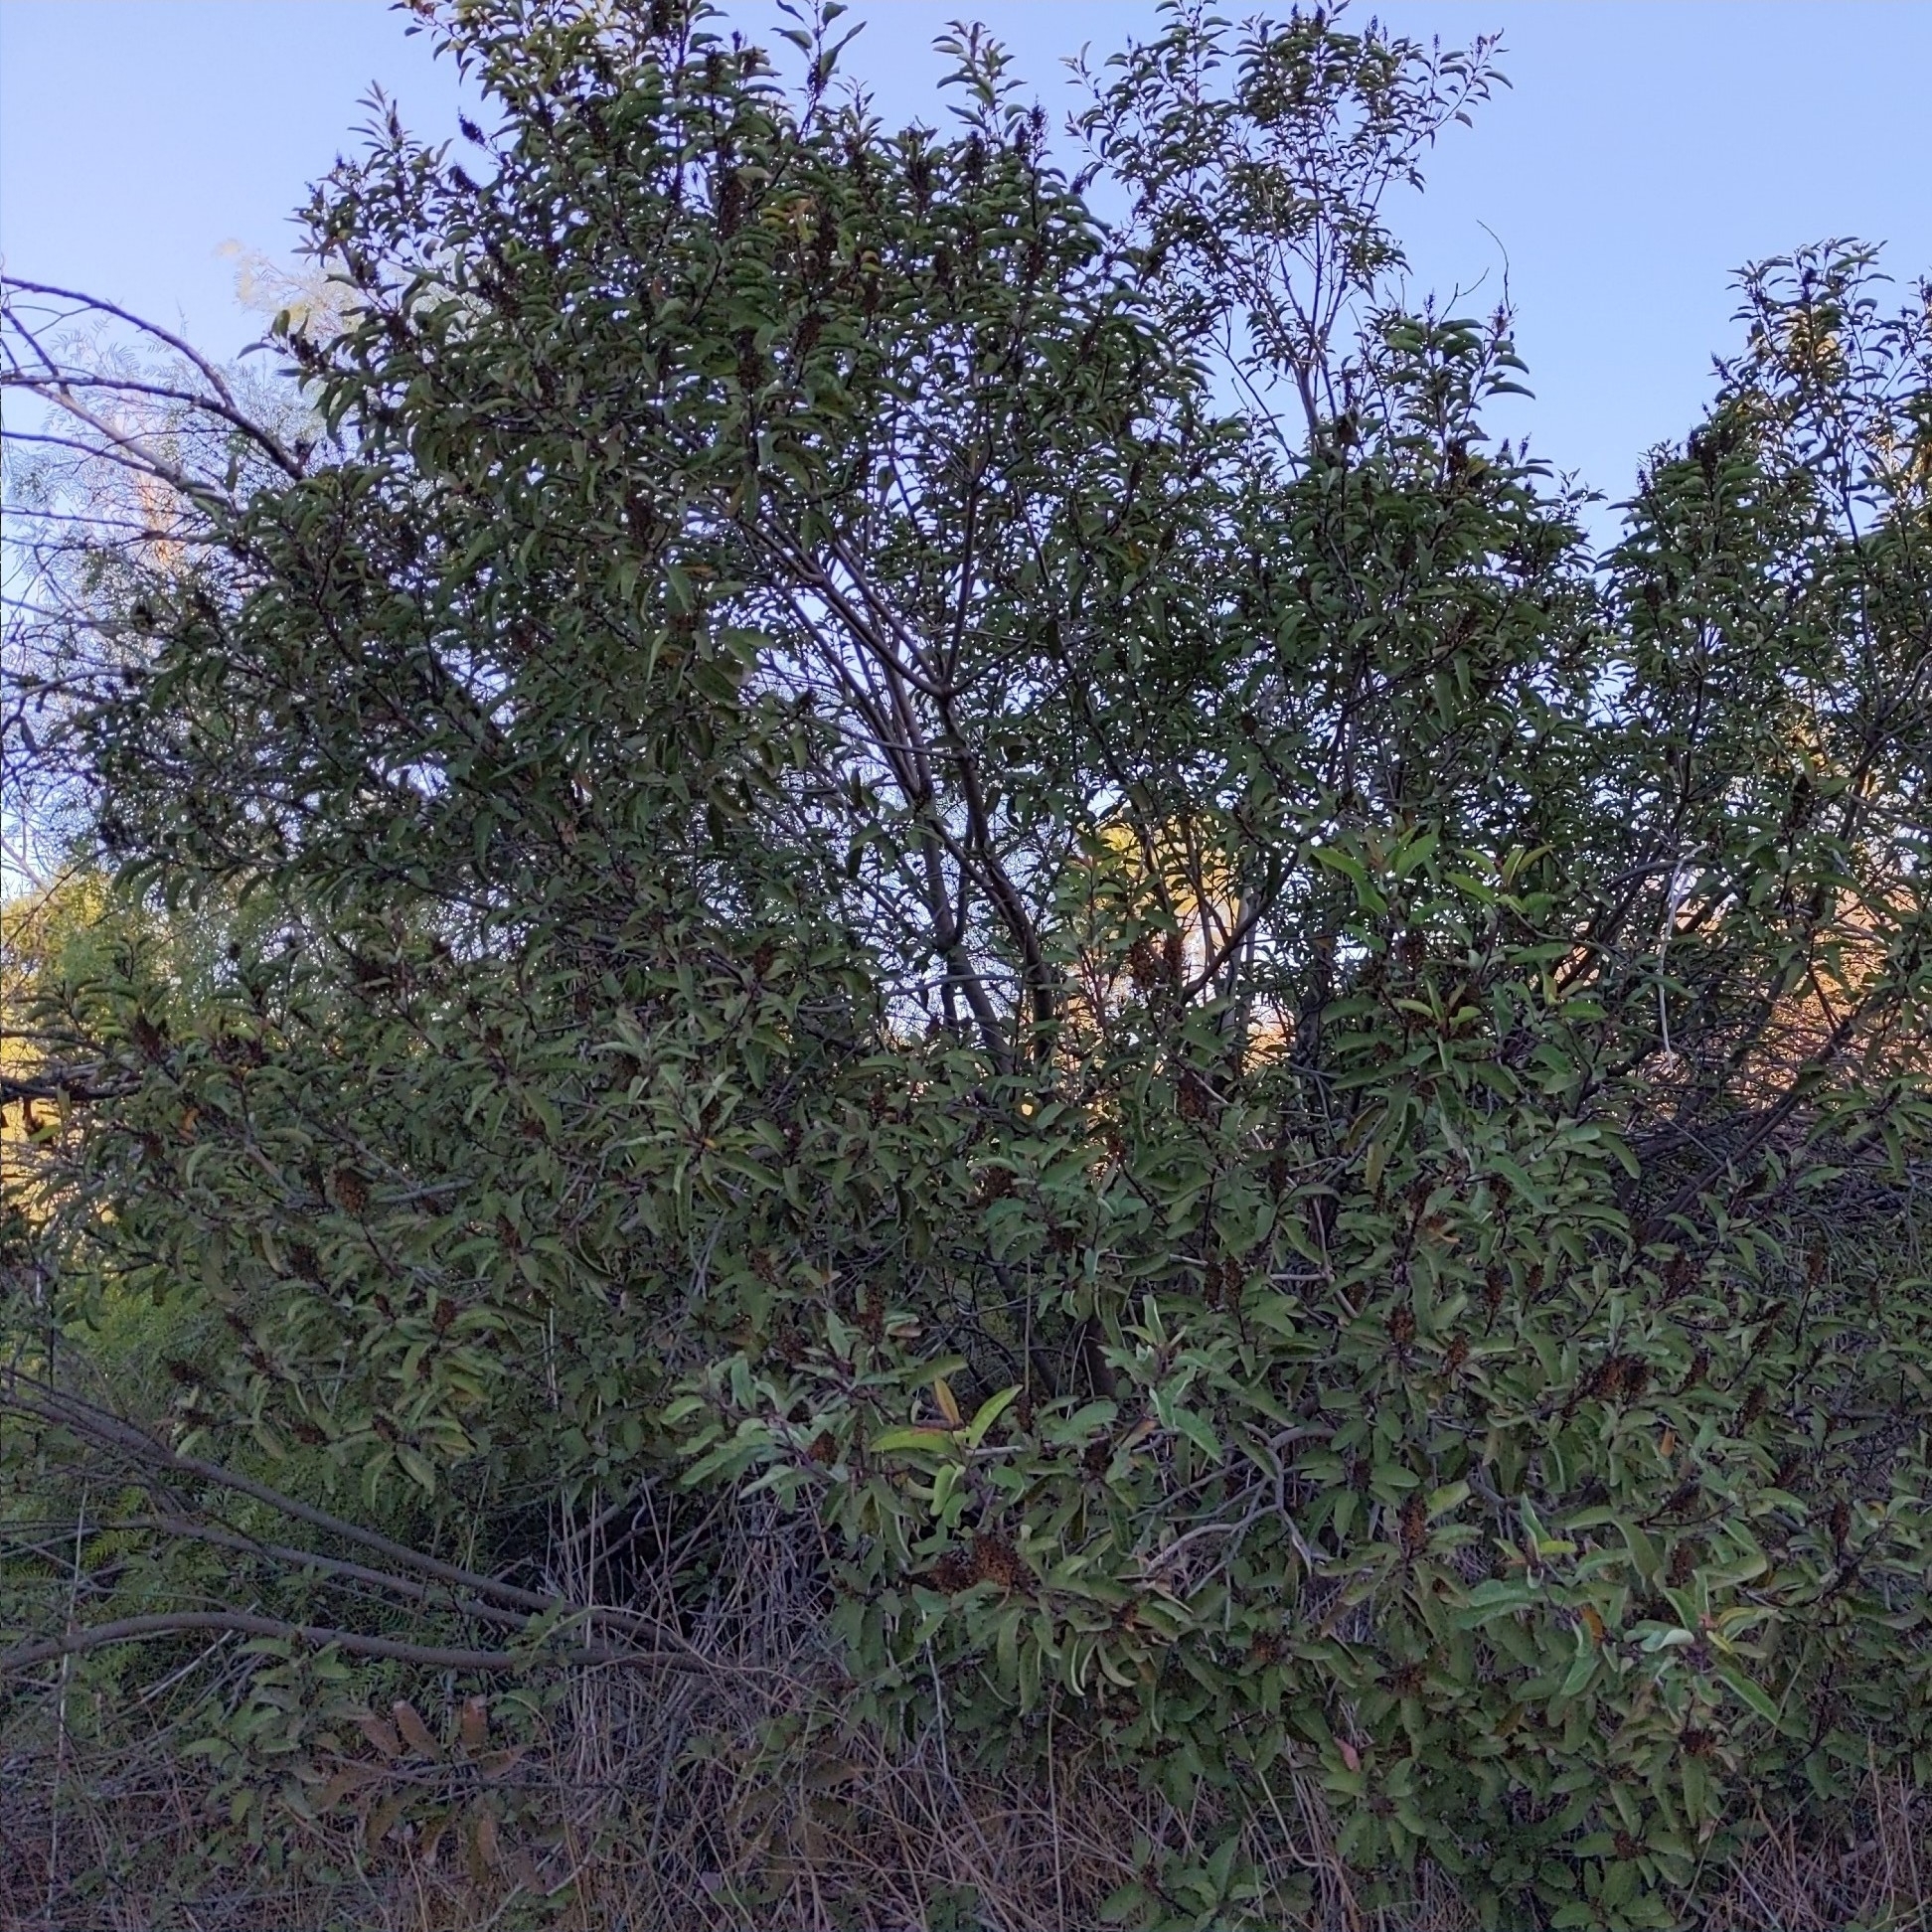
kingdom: Plantae
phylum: Tracheophyta
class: Magnoliopsida
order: Sapindales
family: Anacardiaceae
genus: Malosma
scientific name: Malosma laurina
